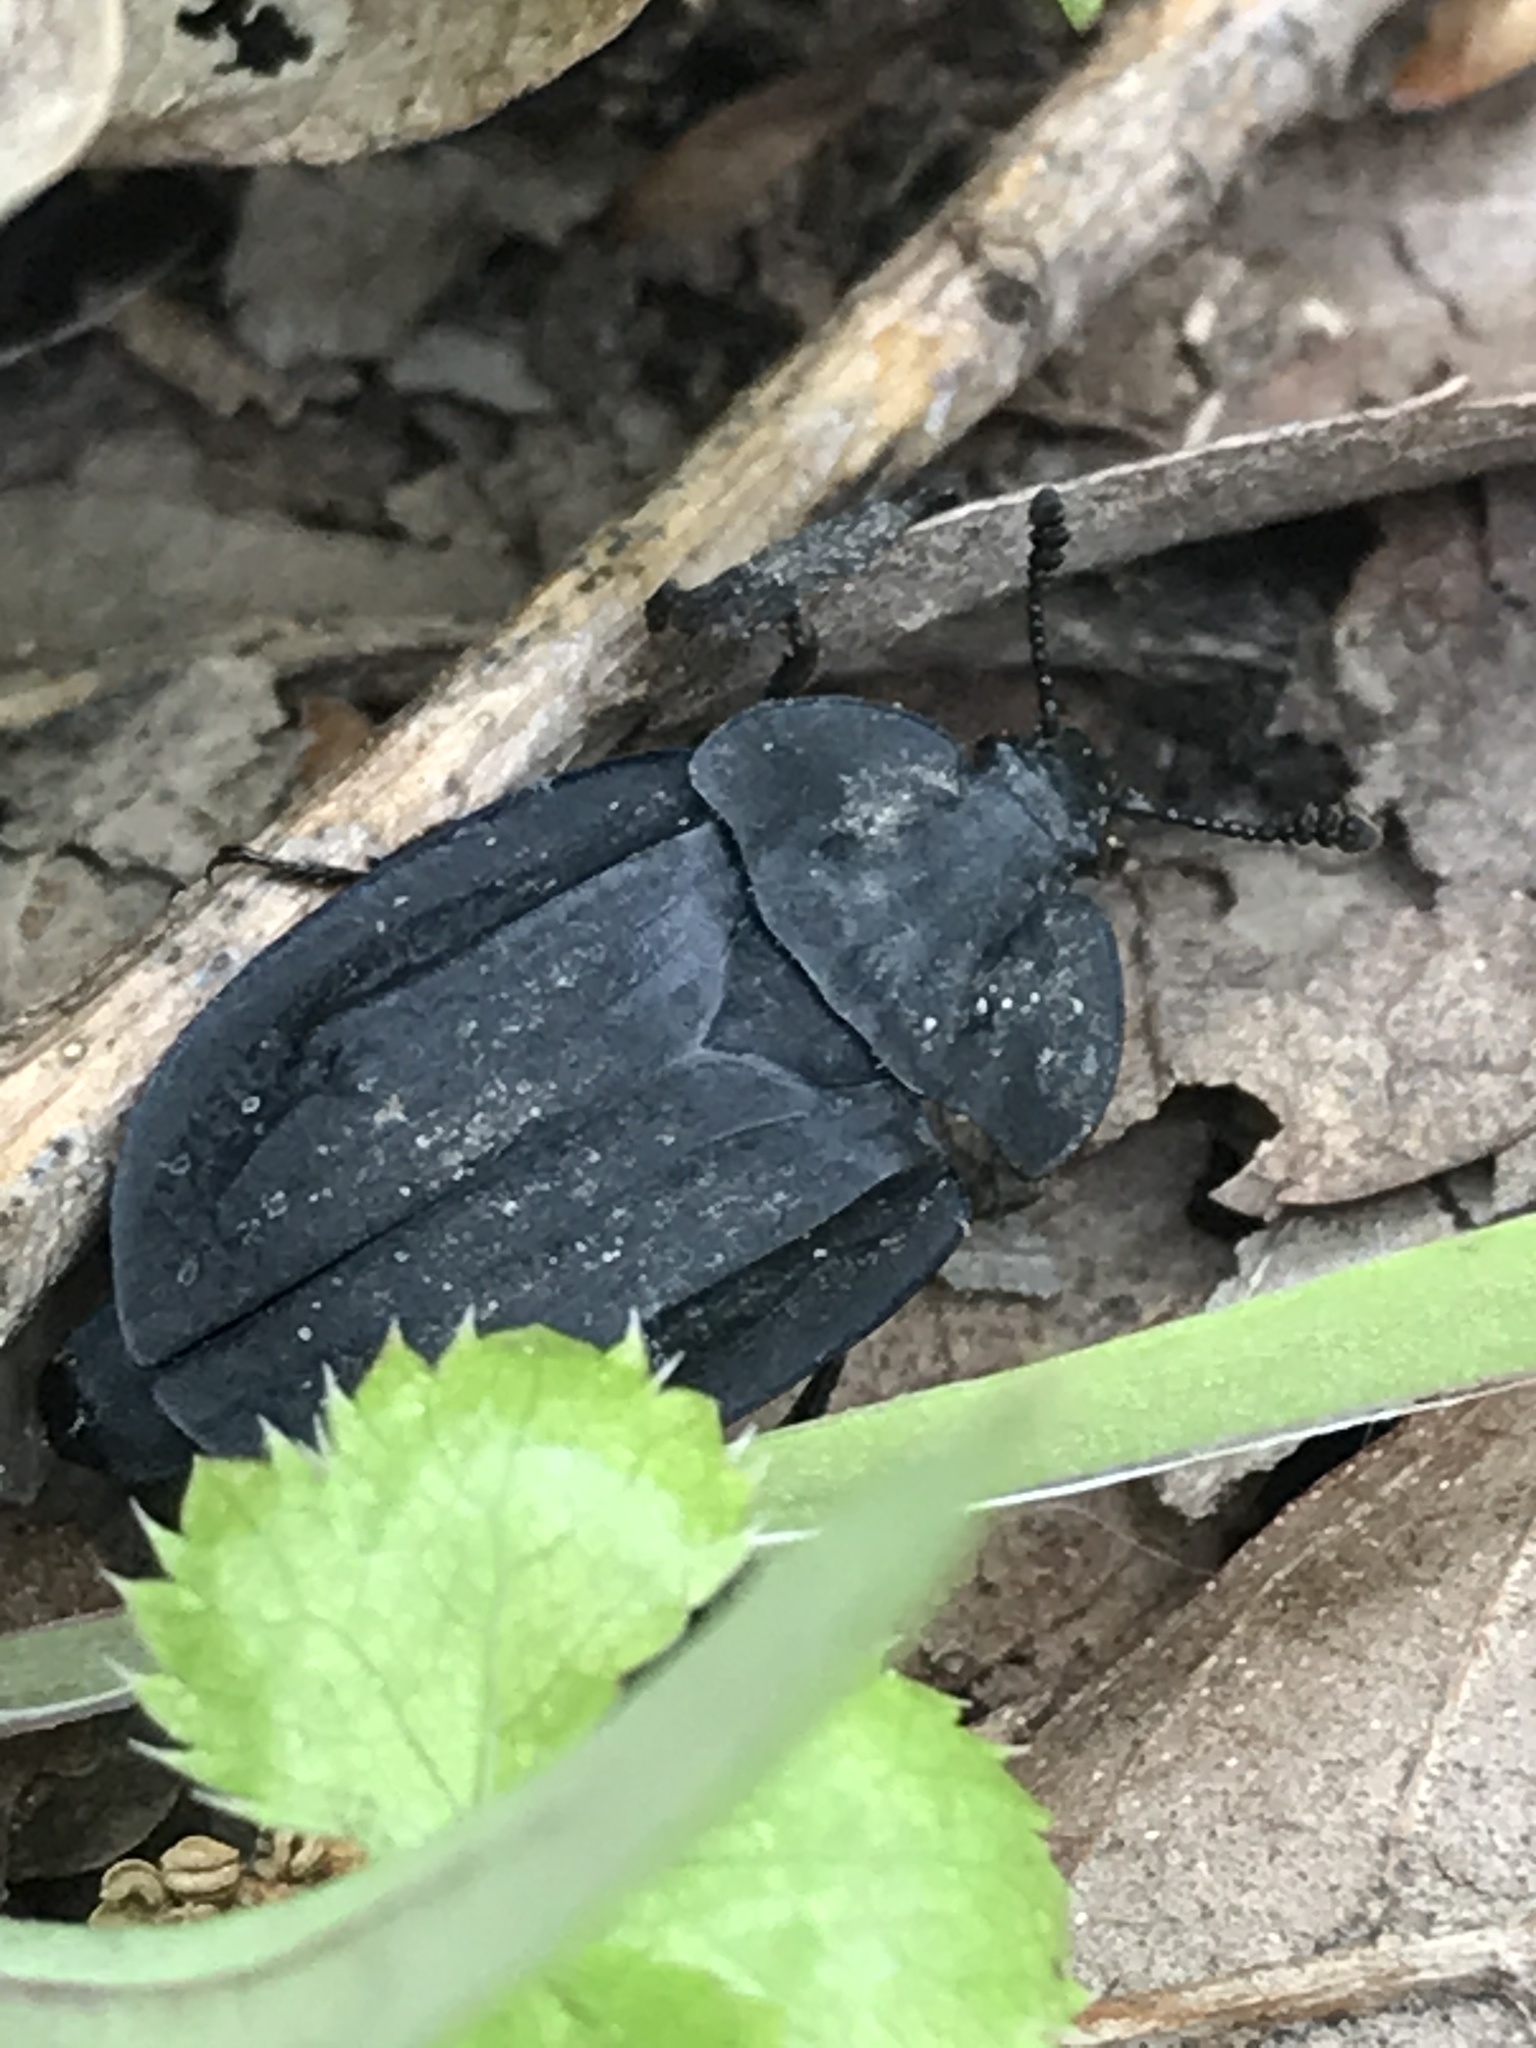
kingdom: Animalia
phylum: Arthropoda
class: Insecta
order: Coleoptera
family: Staphylinidae
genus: Oiceoptoma
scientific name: Oiceoptoma inaequale
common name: Ridged carrion beetle
